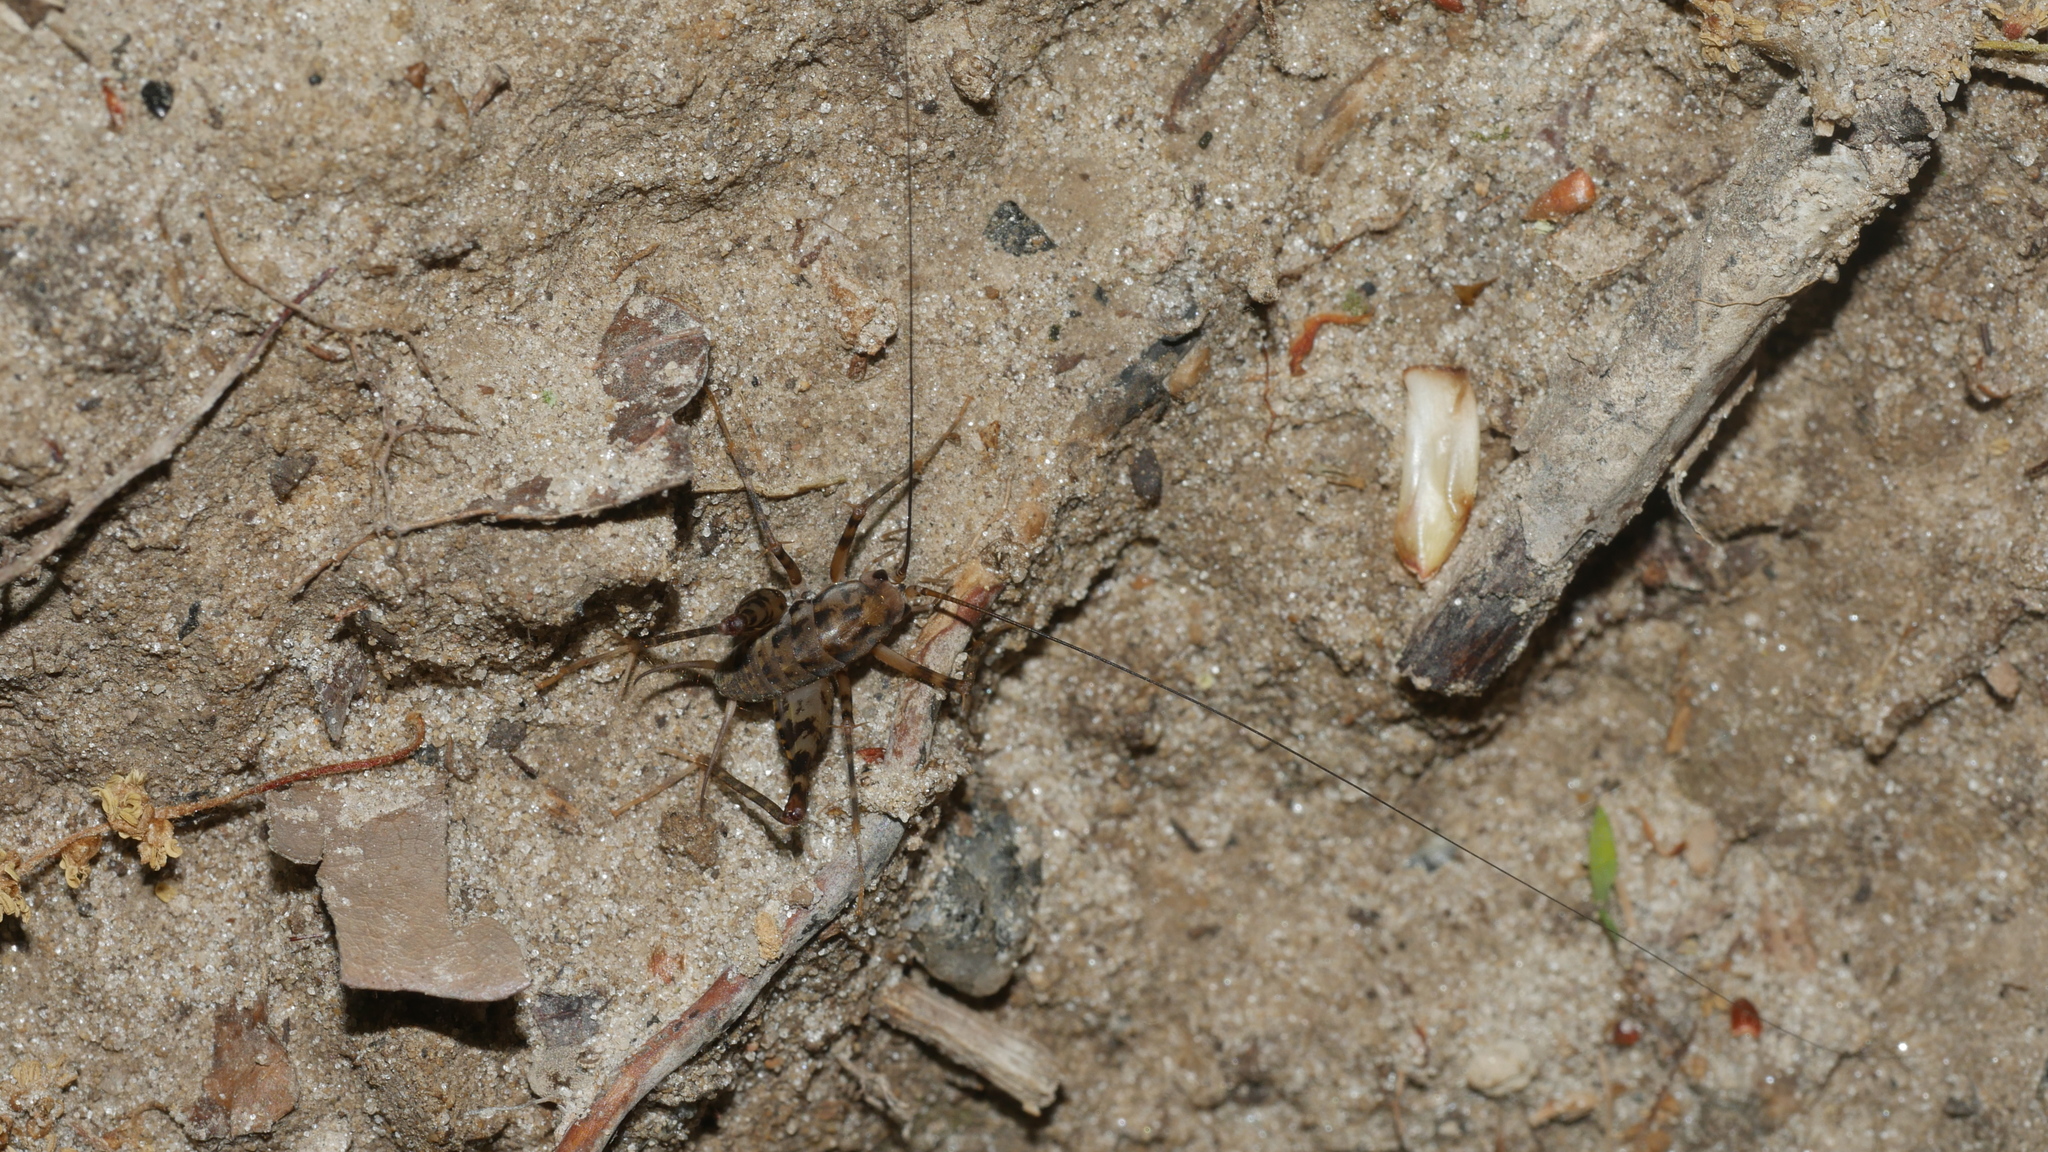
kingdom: Animalia
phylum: Arthropoda
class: Insecta
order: Orthoptera
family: Rhaphidophoridae
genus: Tachycines
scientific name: Tachycines asynamorus
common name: Greenhouse camel cricket
